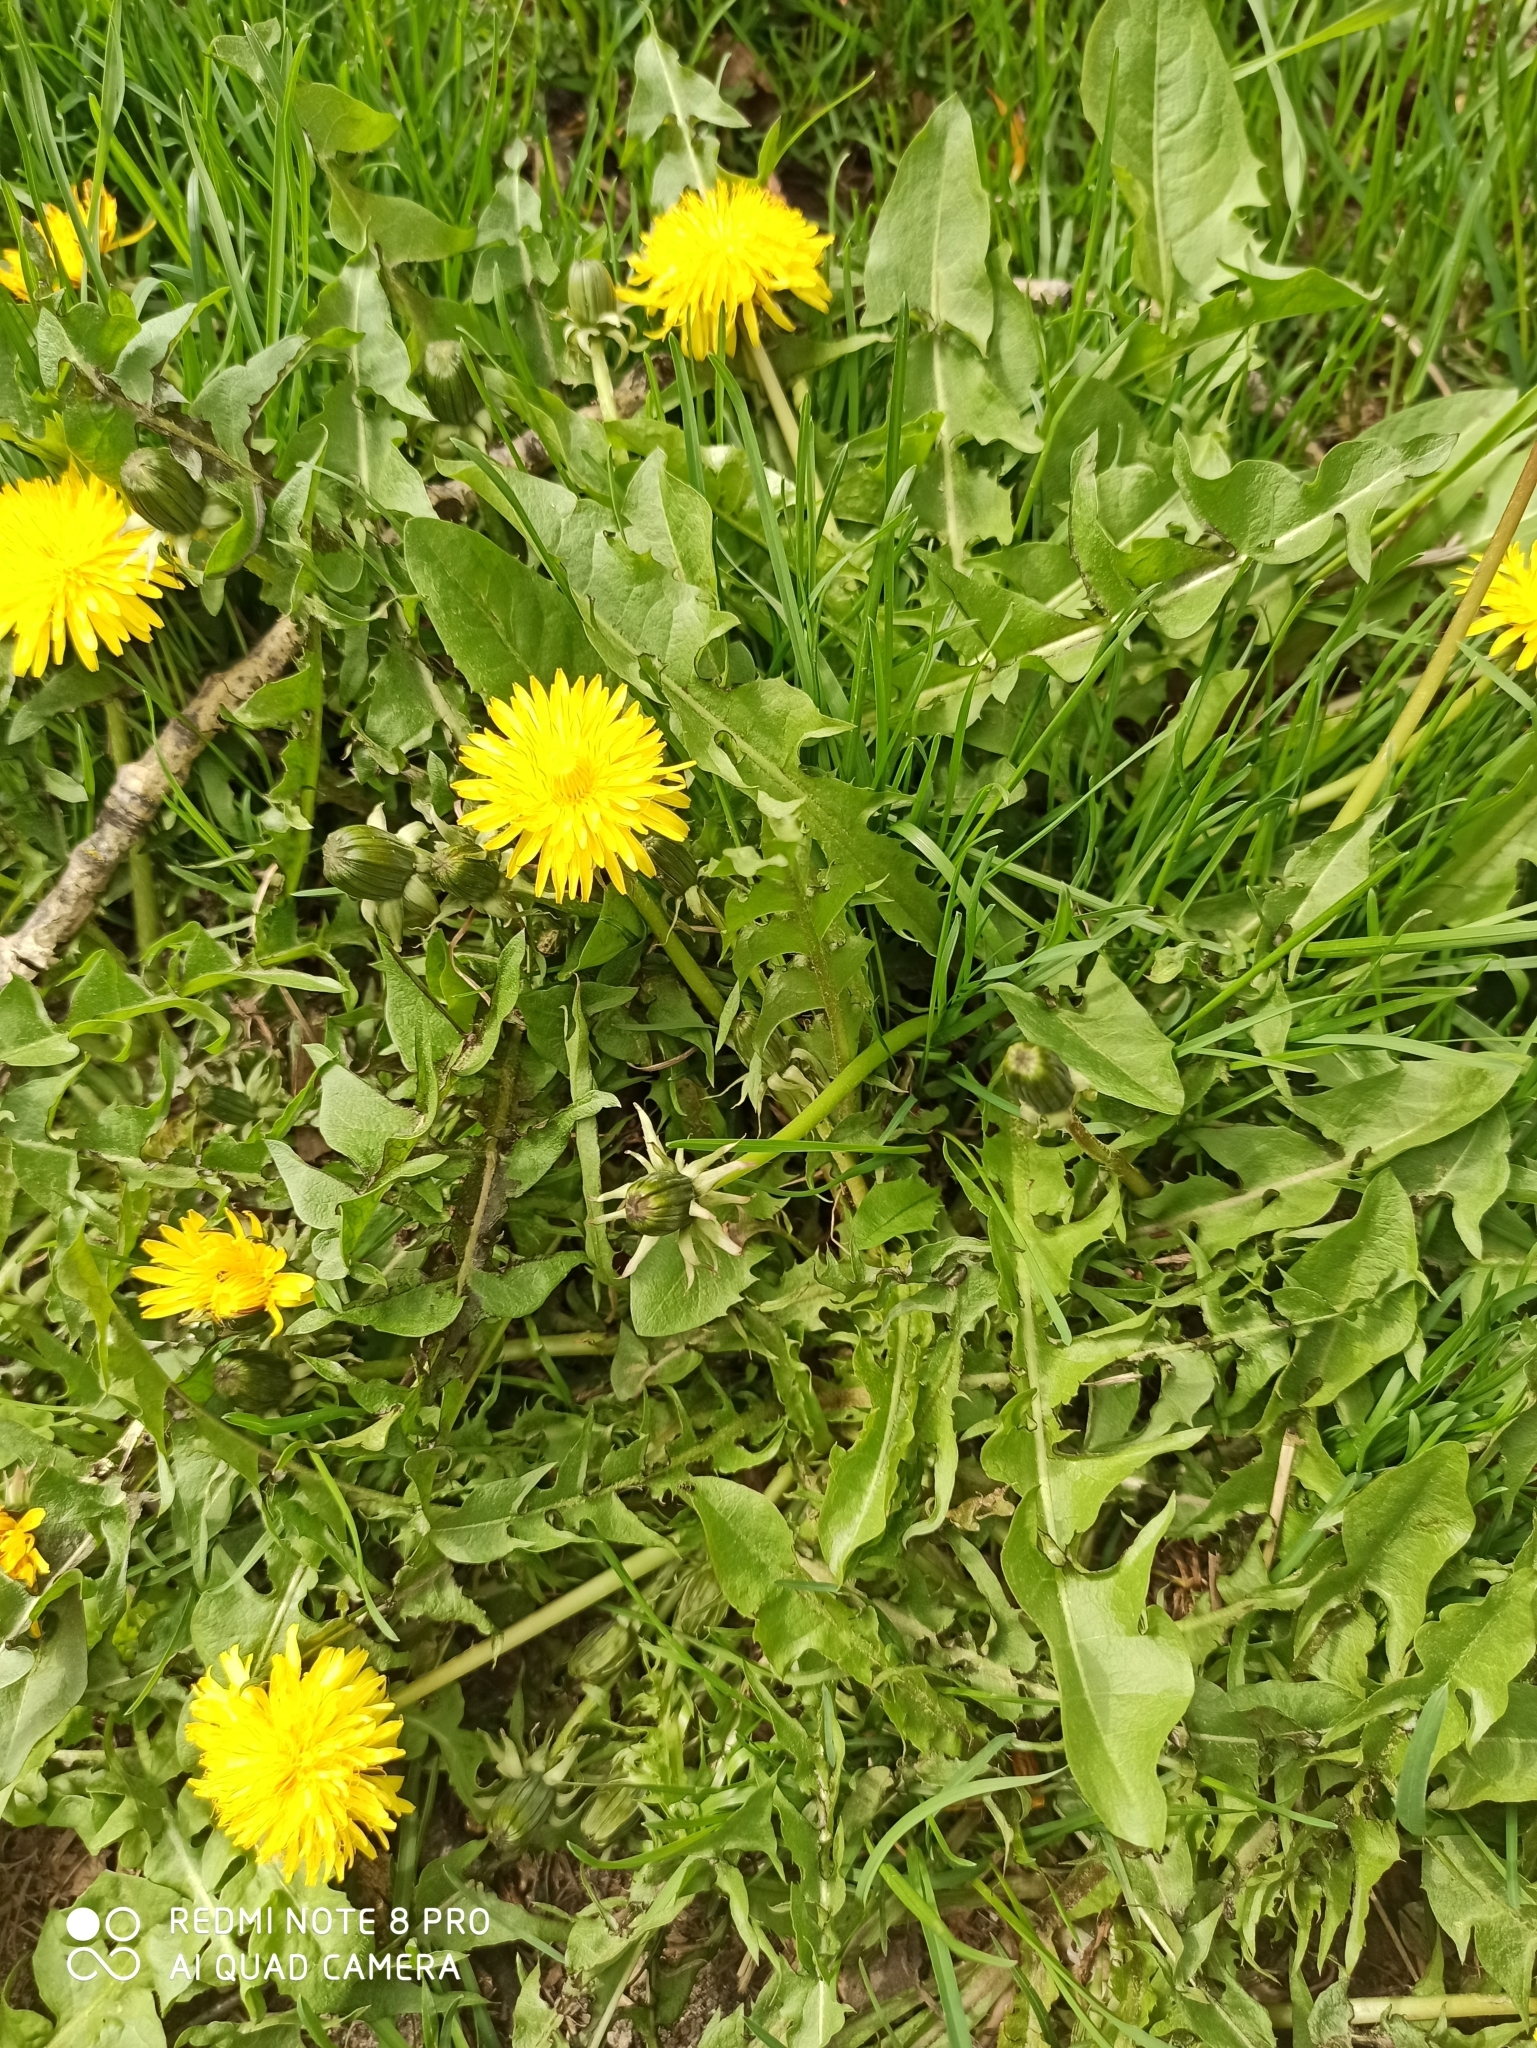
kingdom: Plantae
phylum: Tracheophyta
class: Magnoliopsida
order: Asterales
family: Asteraceae
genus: Taraxacum
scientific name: Taraxacum officinale
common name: Common dandelion
